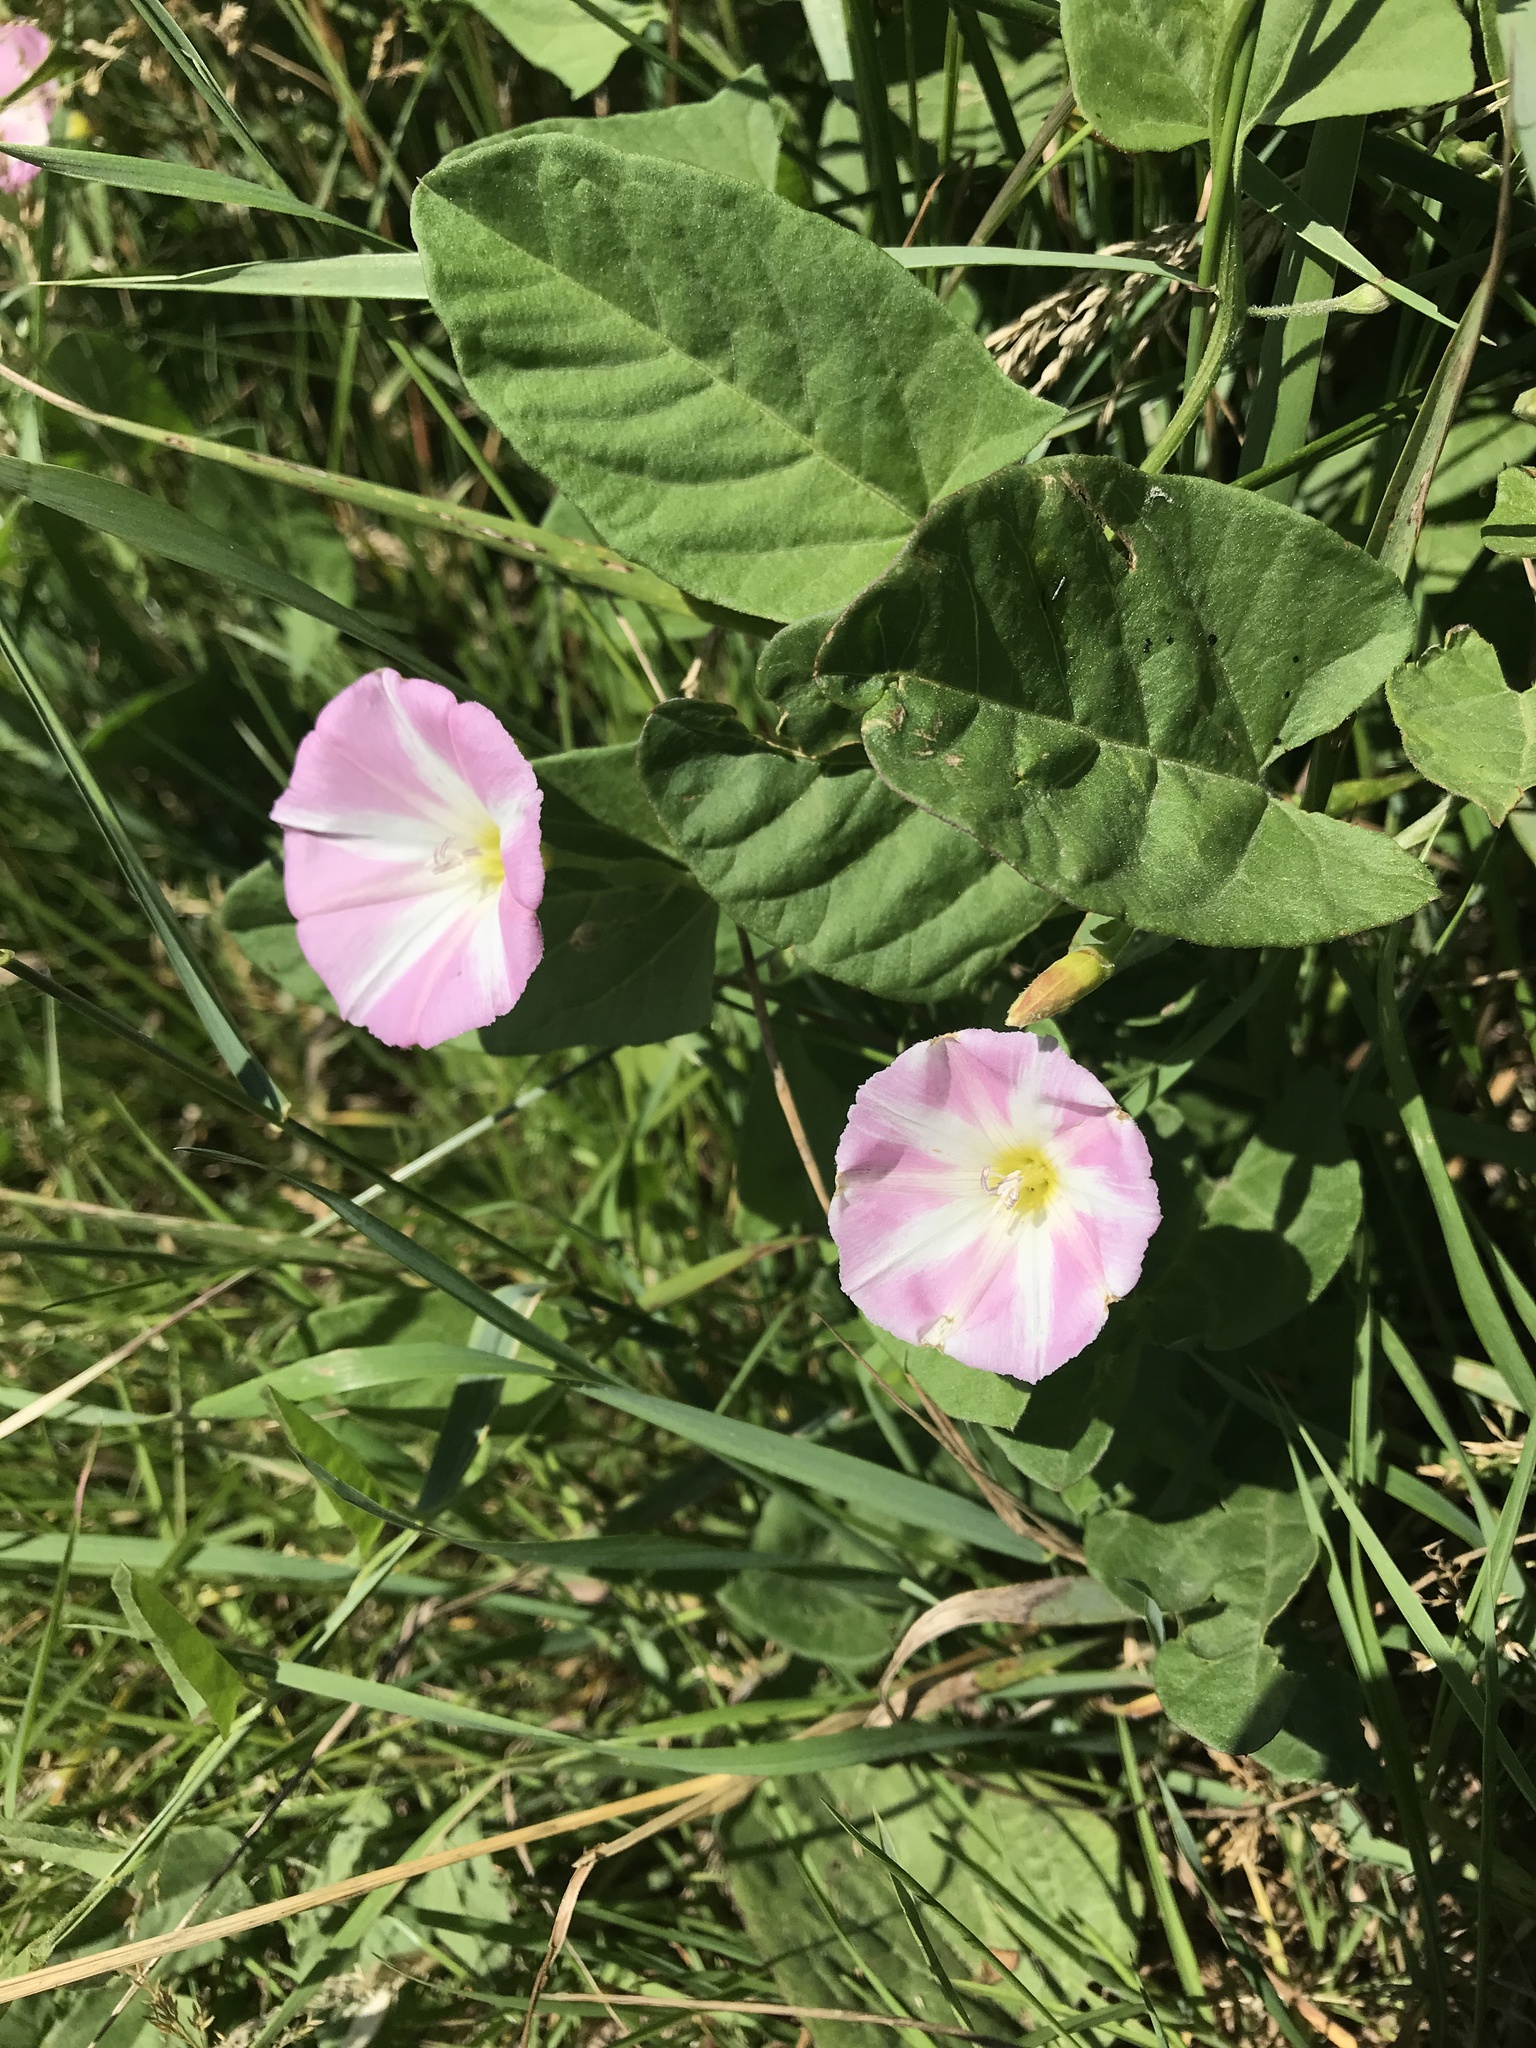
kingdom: Plantae
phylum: Tracheophyta
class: Magnoliopsida
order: Solanales
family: Convolvulaceae
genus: Convolvulus
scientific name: Convolvulus arvensis
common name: Field bindweed
